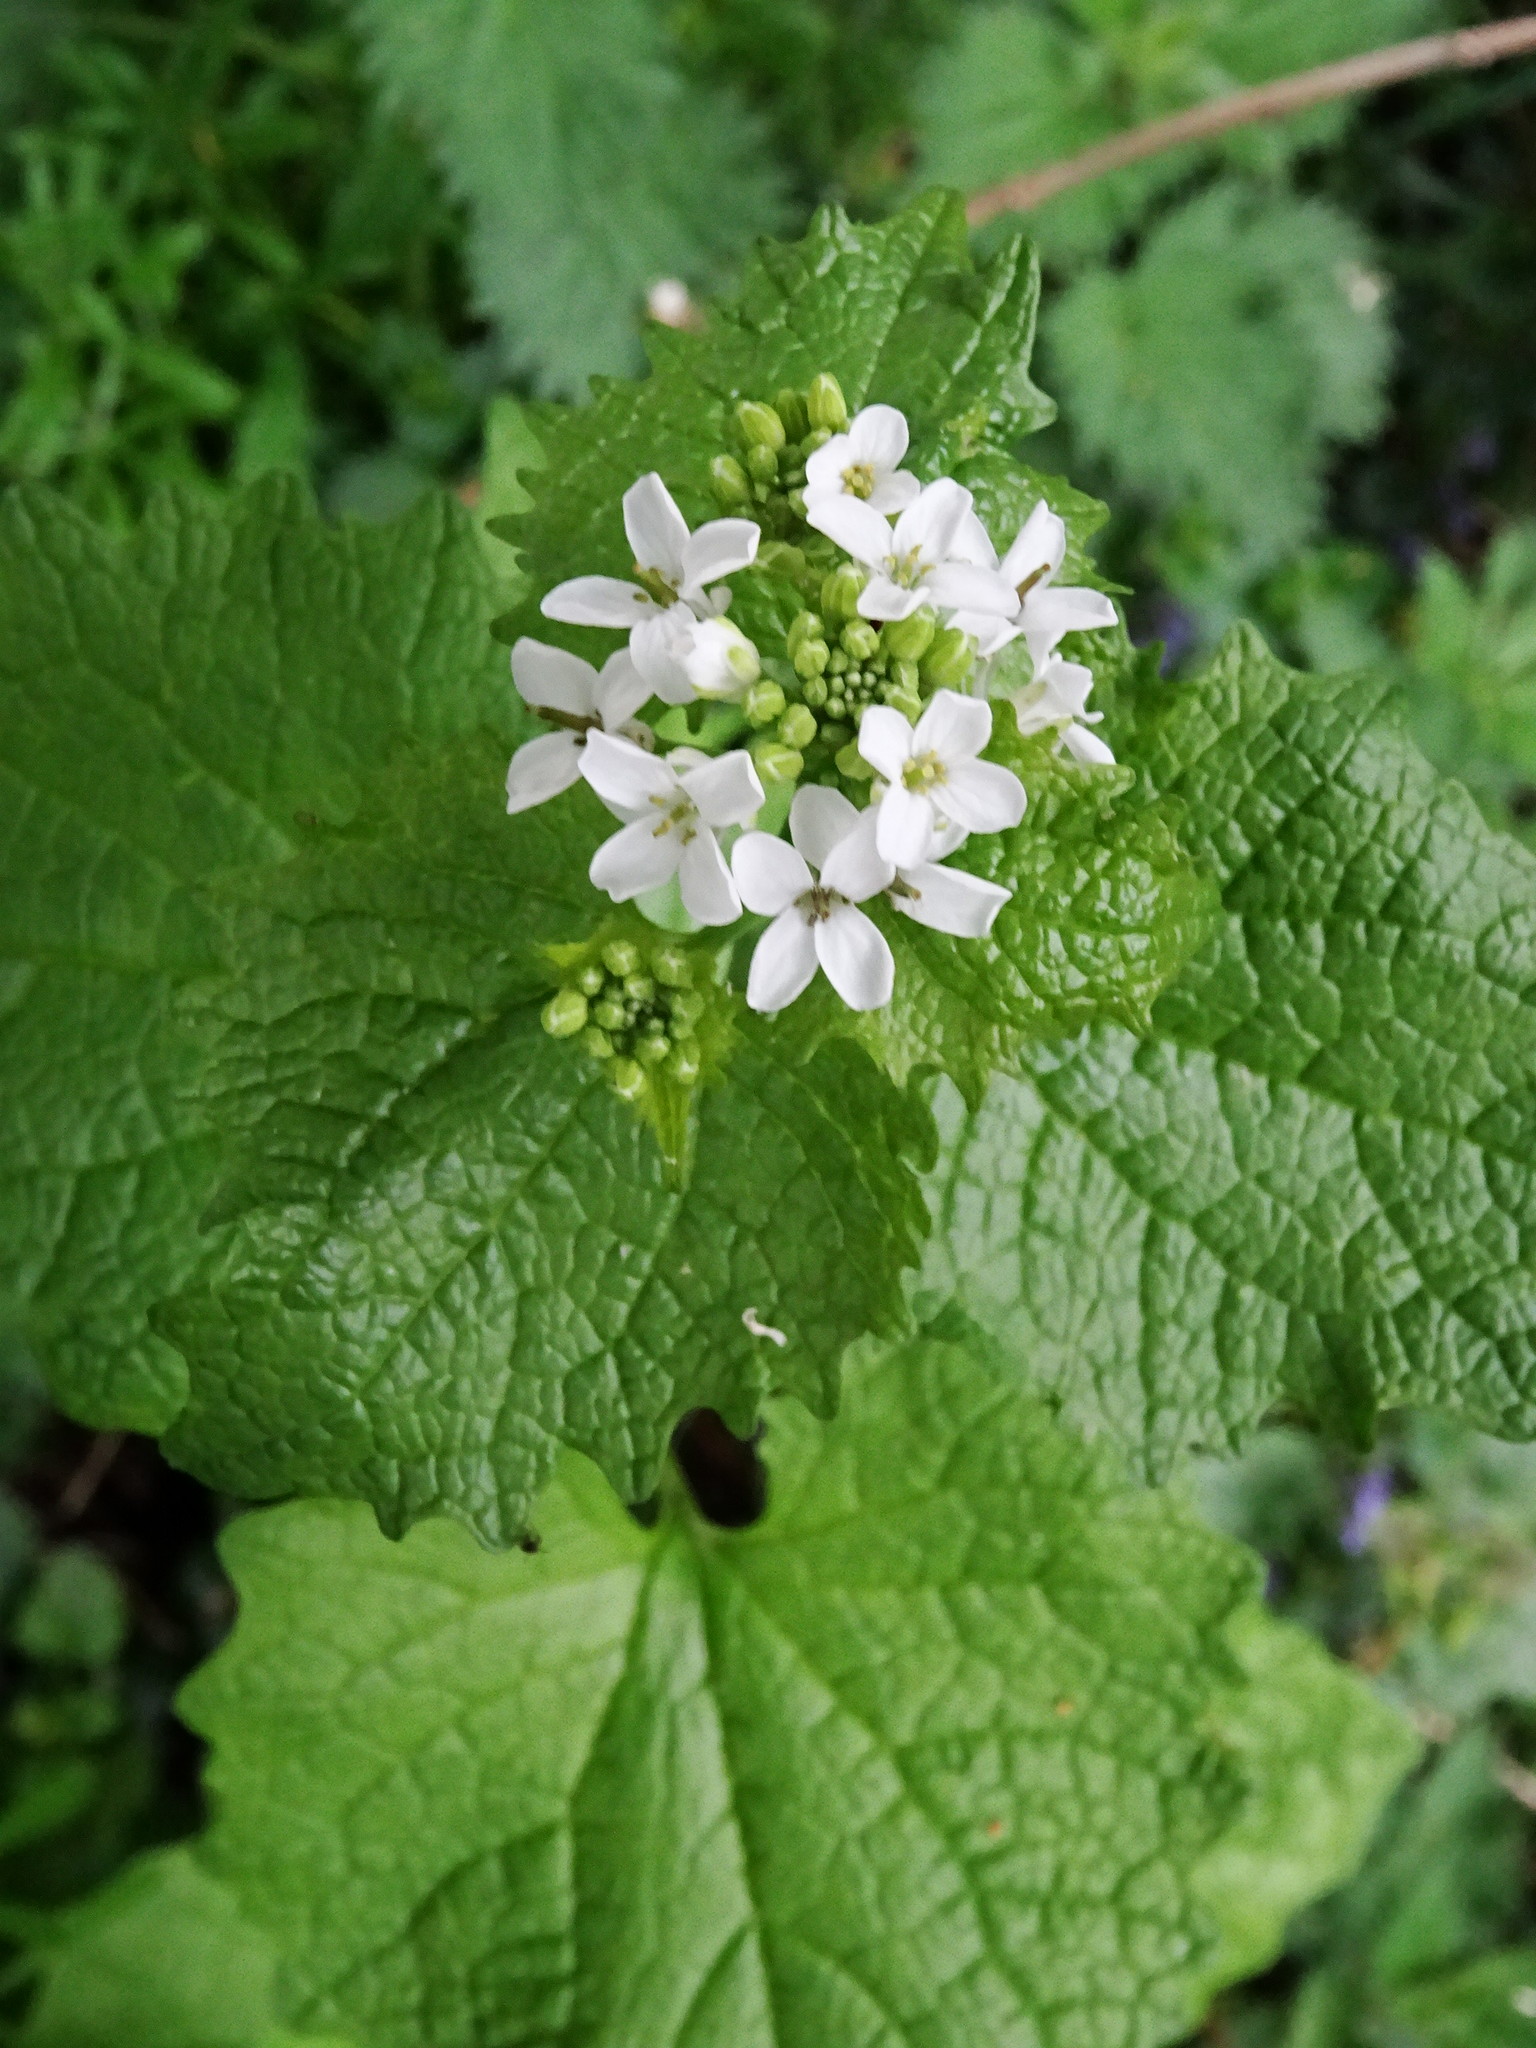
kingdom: Plantae
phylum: Tracheophyta
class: Magnoliopsida
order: Brassicales
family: Brassicaceae
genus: Alliaria
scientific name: Alliaria petiolata
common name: Garlic mustard
